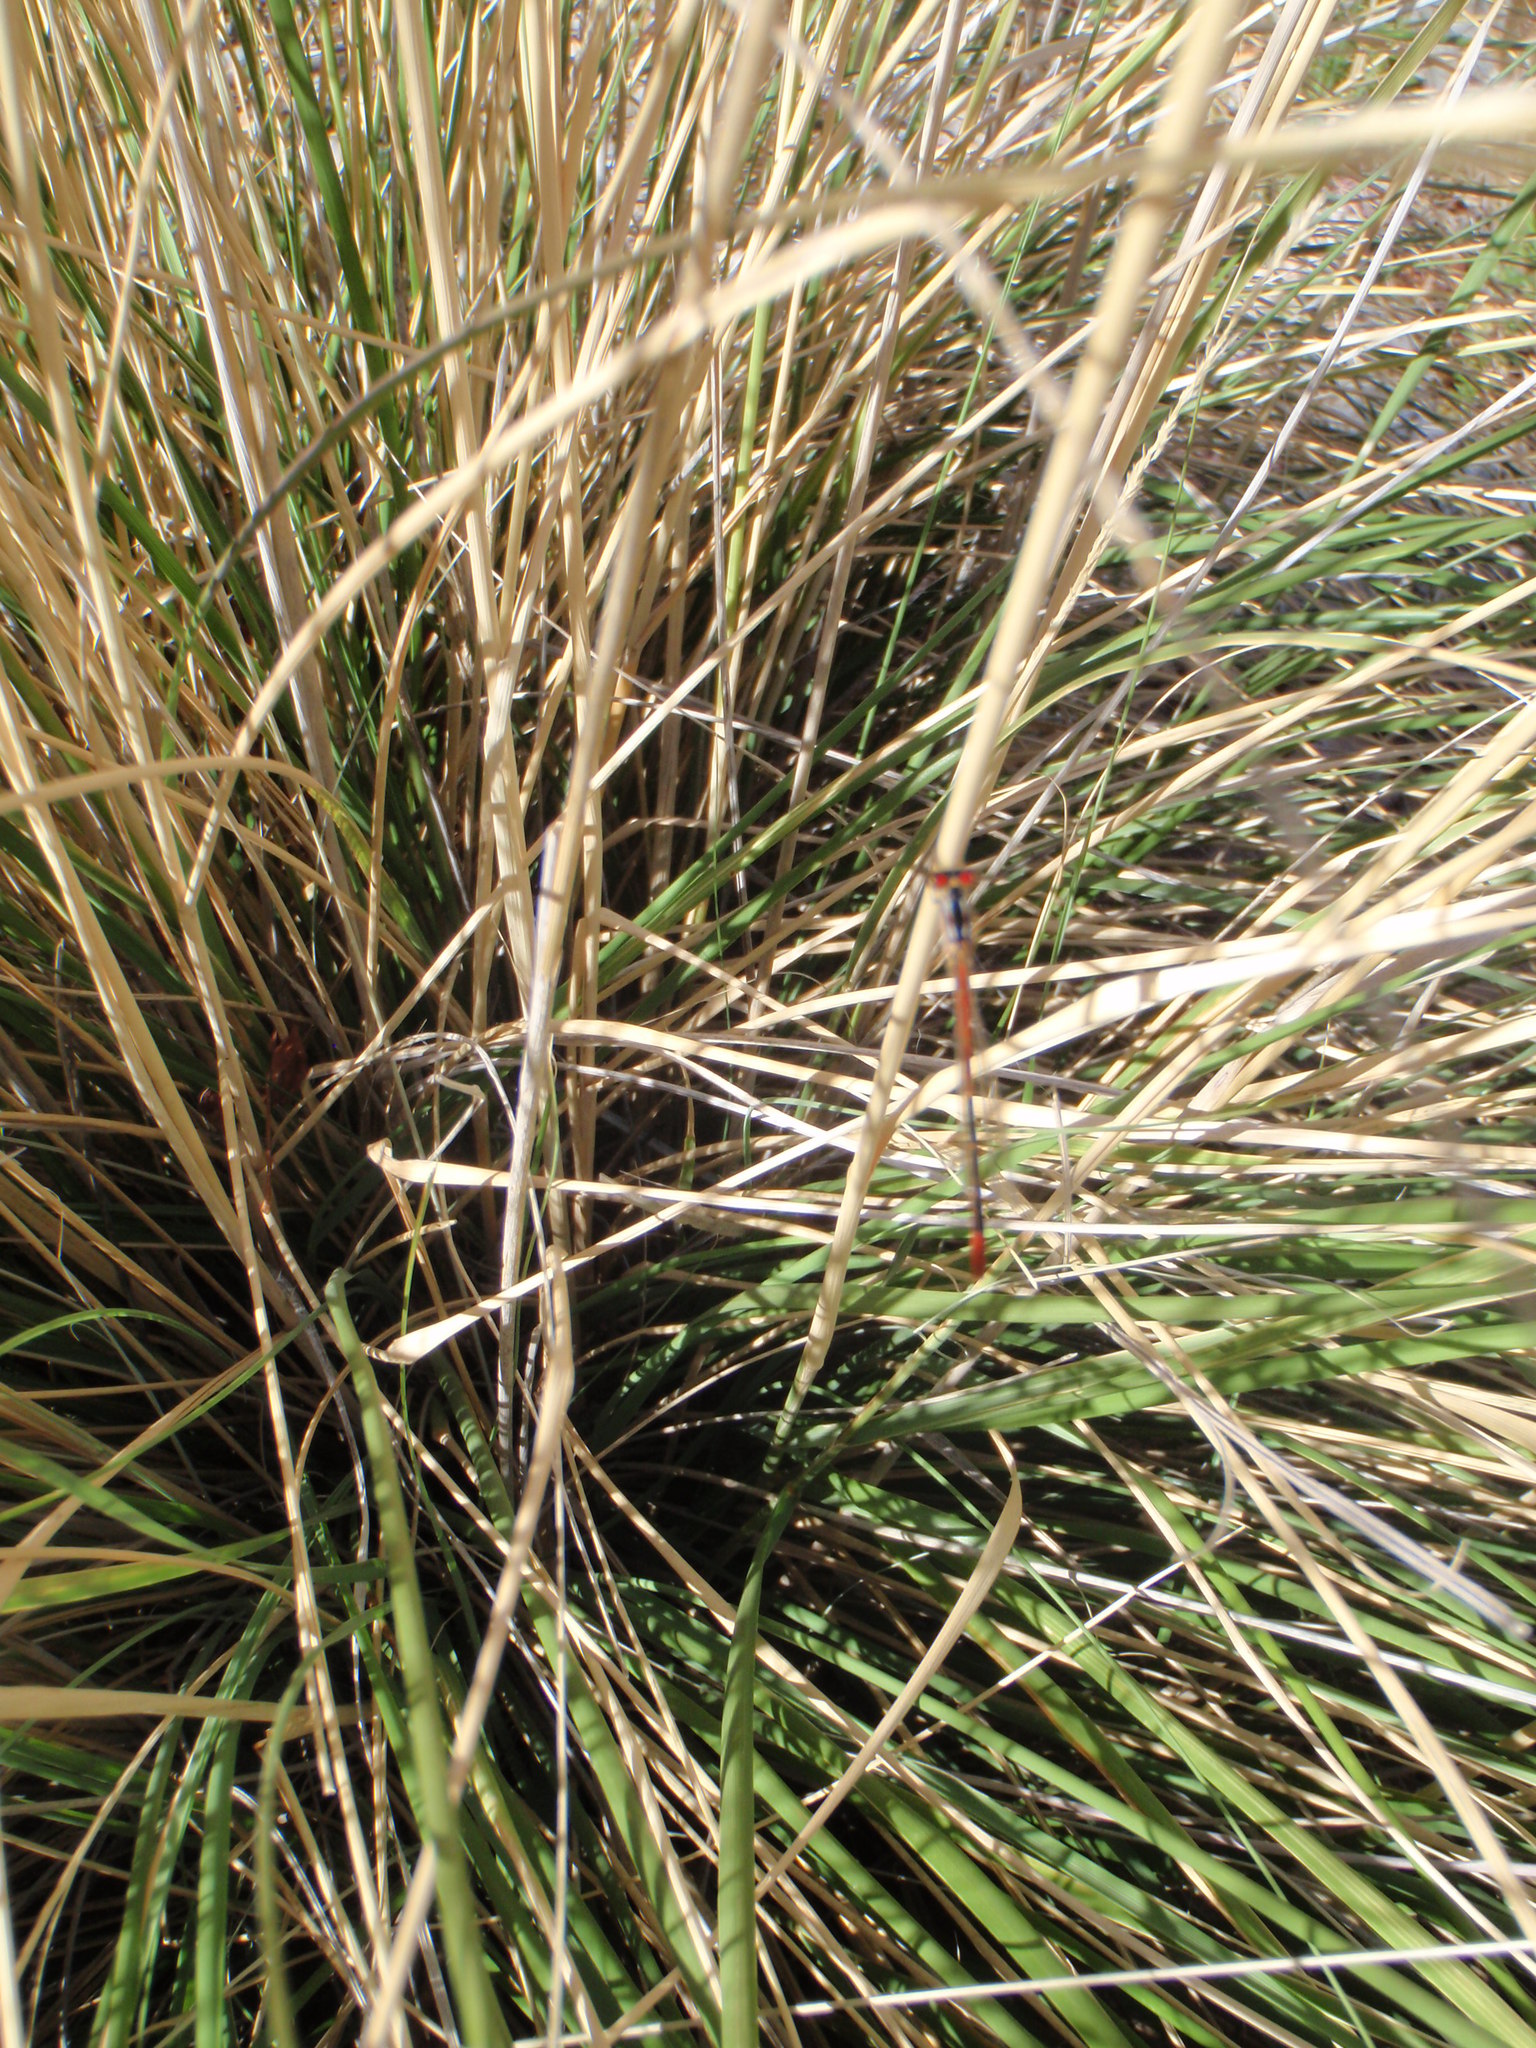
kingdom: Animalia
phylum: Arthropoda
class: Insecta
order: Odonata
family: Coenagrionidae
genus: Hesperagrion
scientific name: Hesperagrion heterodoxum
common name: Painted damsel
